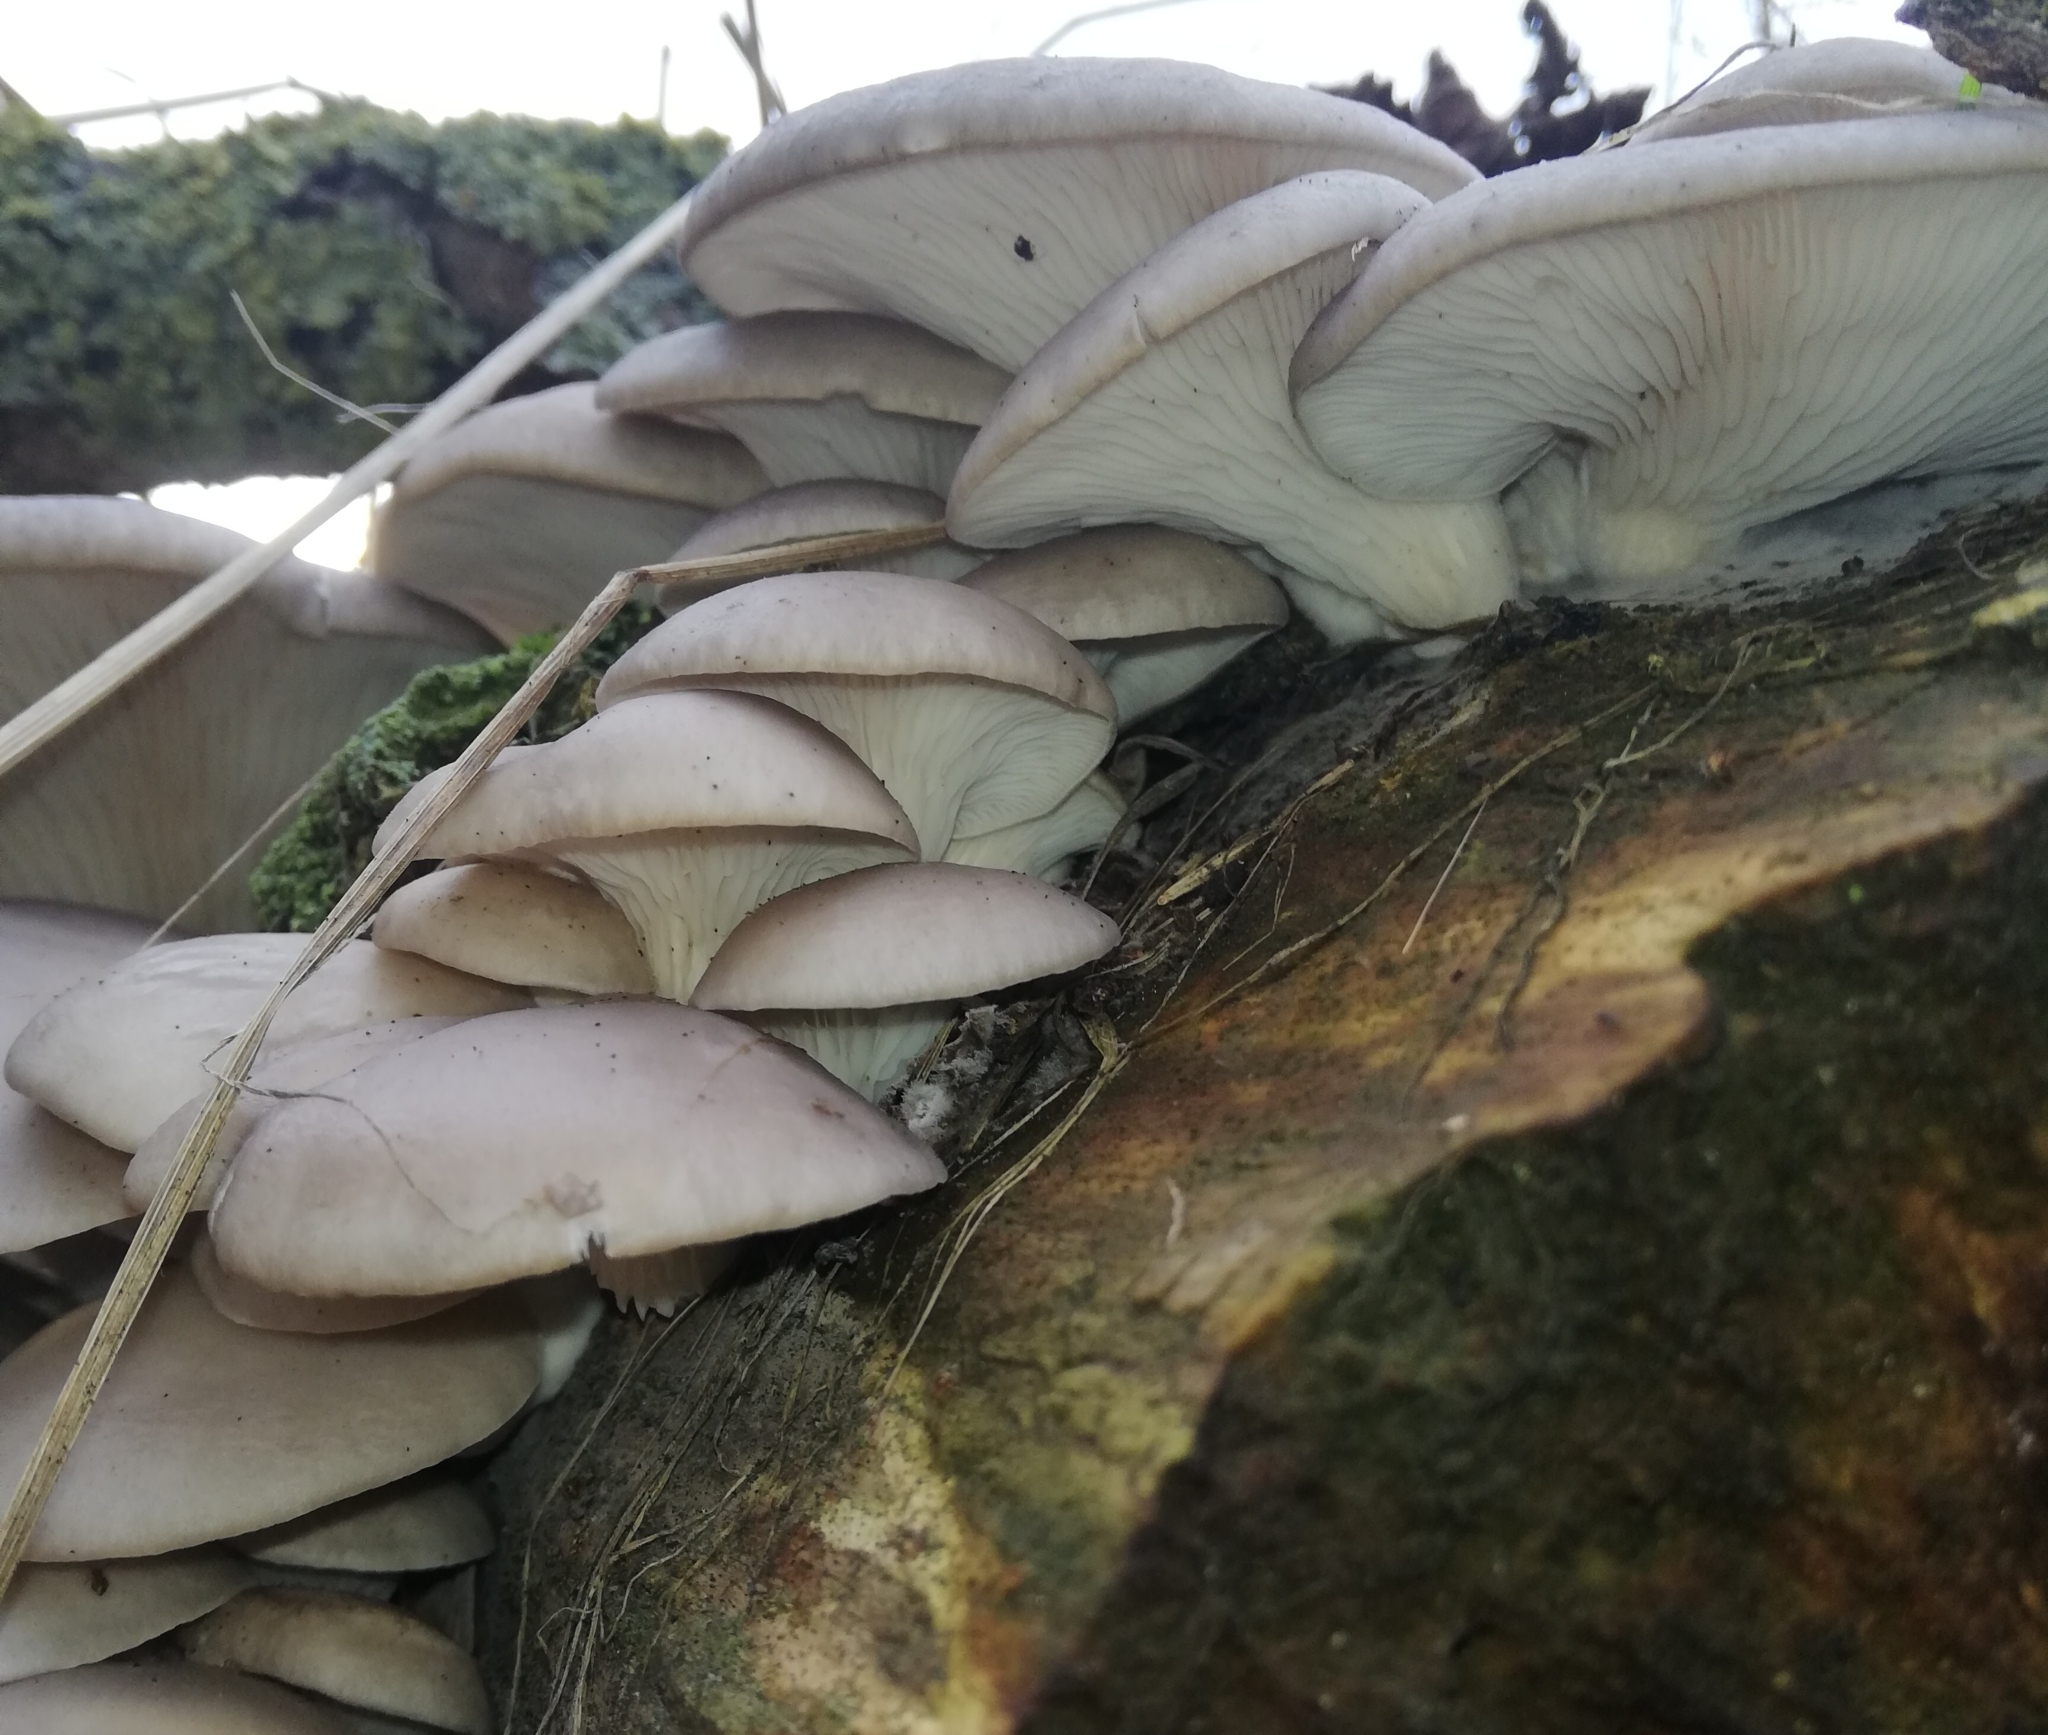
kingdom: Fungi
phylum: Basidiomycota
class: Agaricomycetes
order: Agaricales
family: Pleurotaceae
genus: Pleurotus
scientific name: Pleurotus ostreatus
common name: Oyster mushroom
